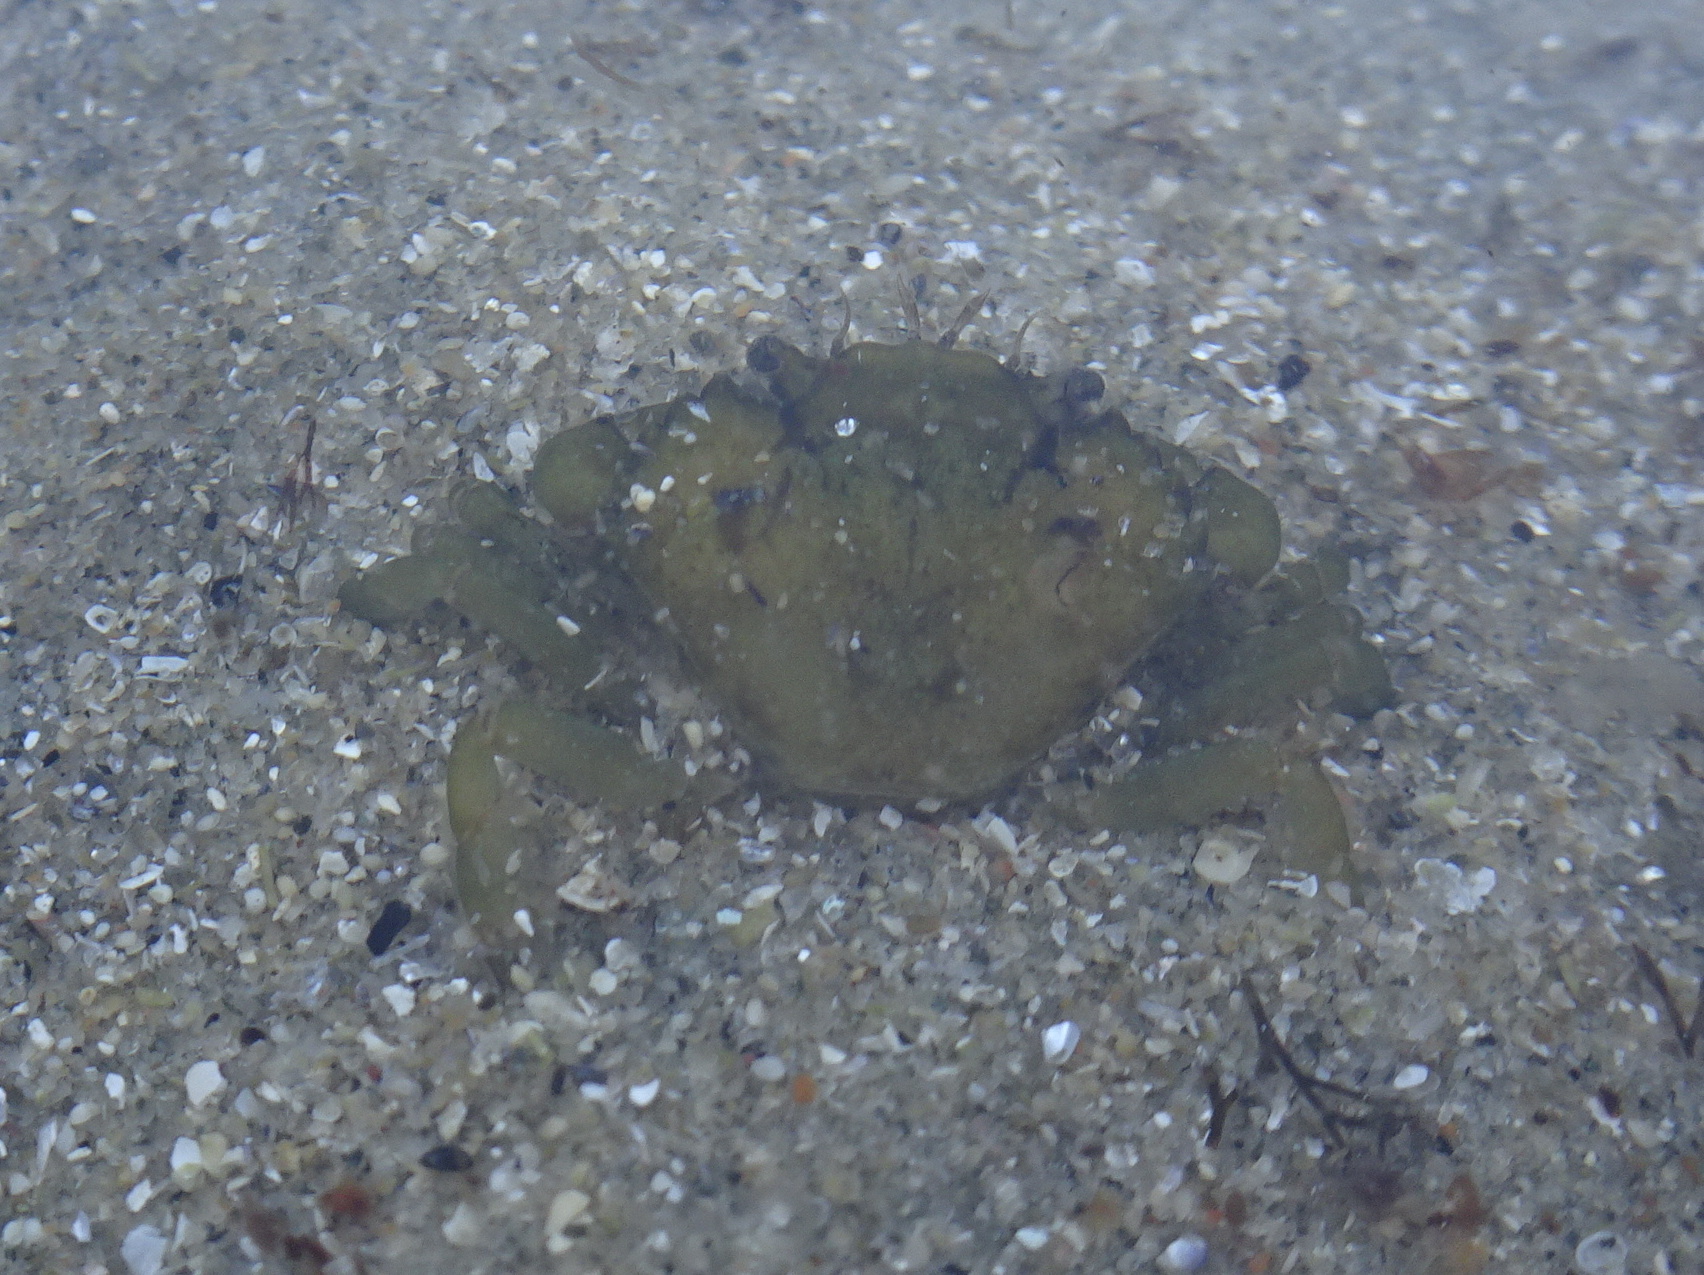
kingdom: Animalia
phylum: Arthropoda
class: Malacostraca
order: Decapoda
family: Carcinidae
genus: Carcinus
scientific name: Carcinus maenas
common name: European green crab
